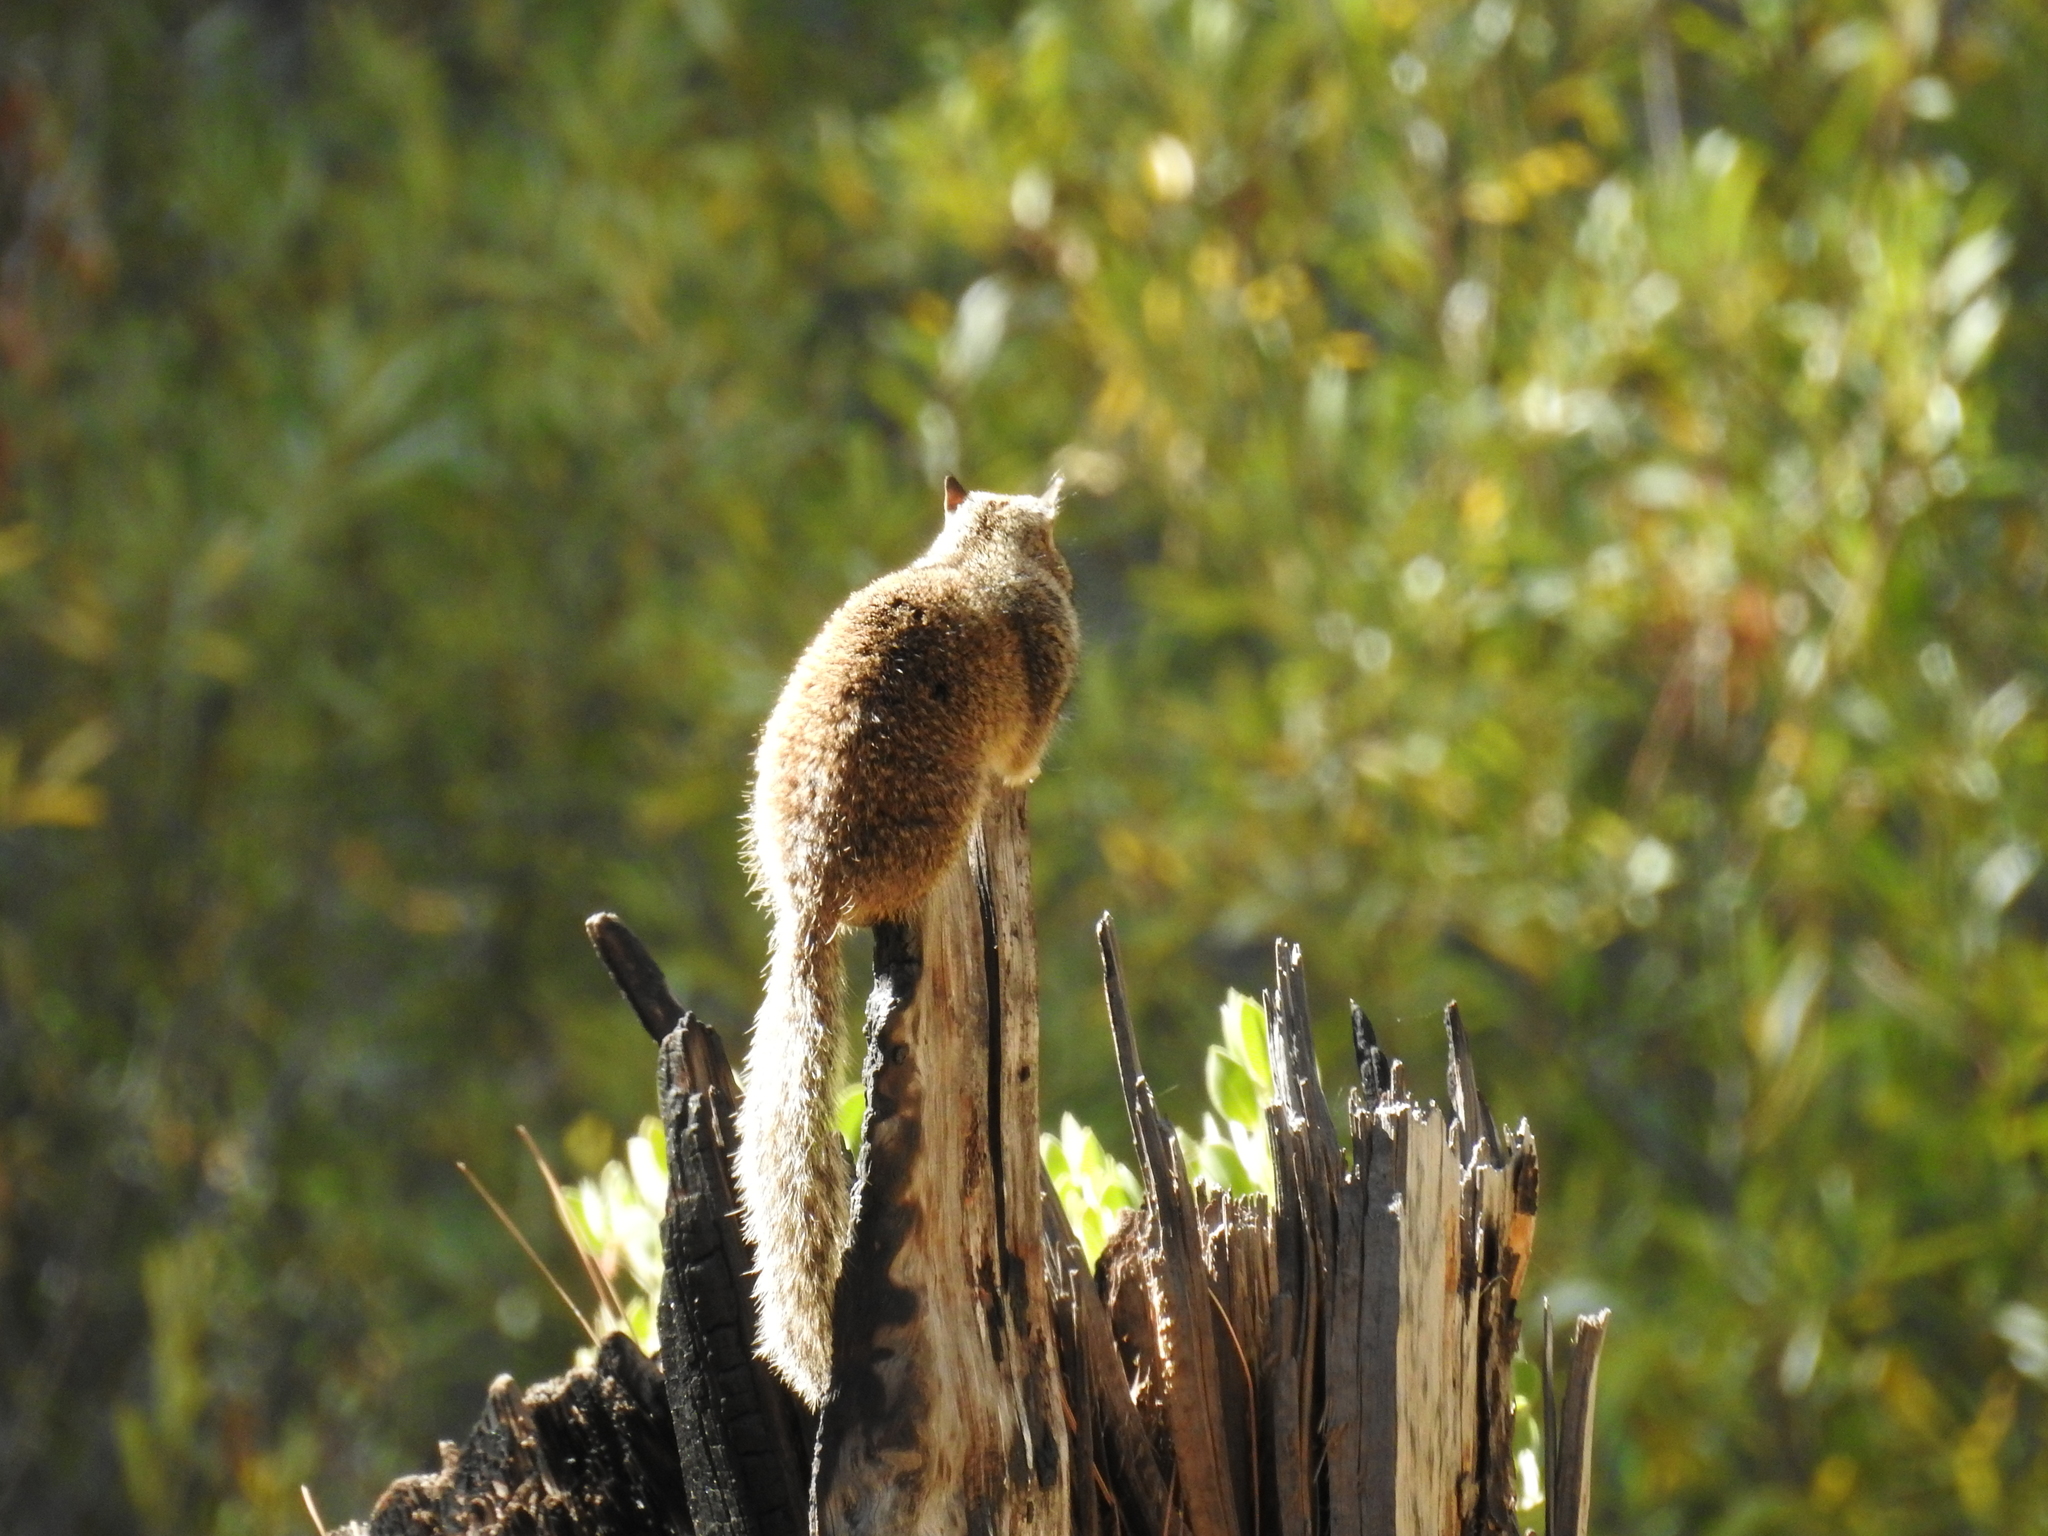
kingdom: Animalia
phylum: Chordata
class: Mammalia
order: Rodentia
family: Sciuridae
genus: Otospermophilus
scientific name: Otospermophilus beecheyi
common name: California ground squirrel
